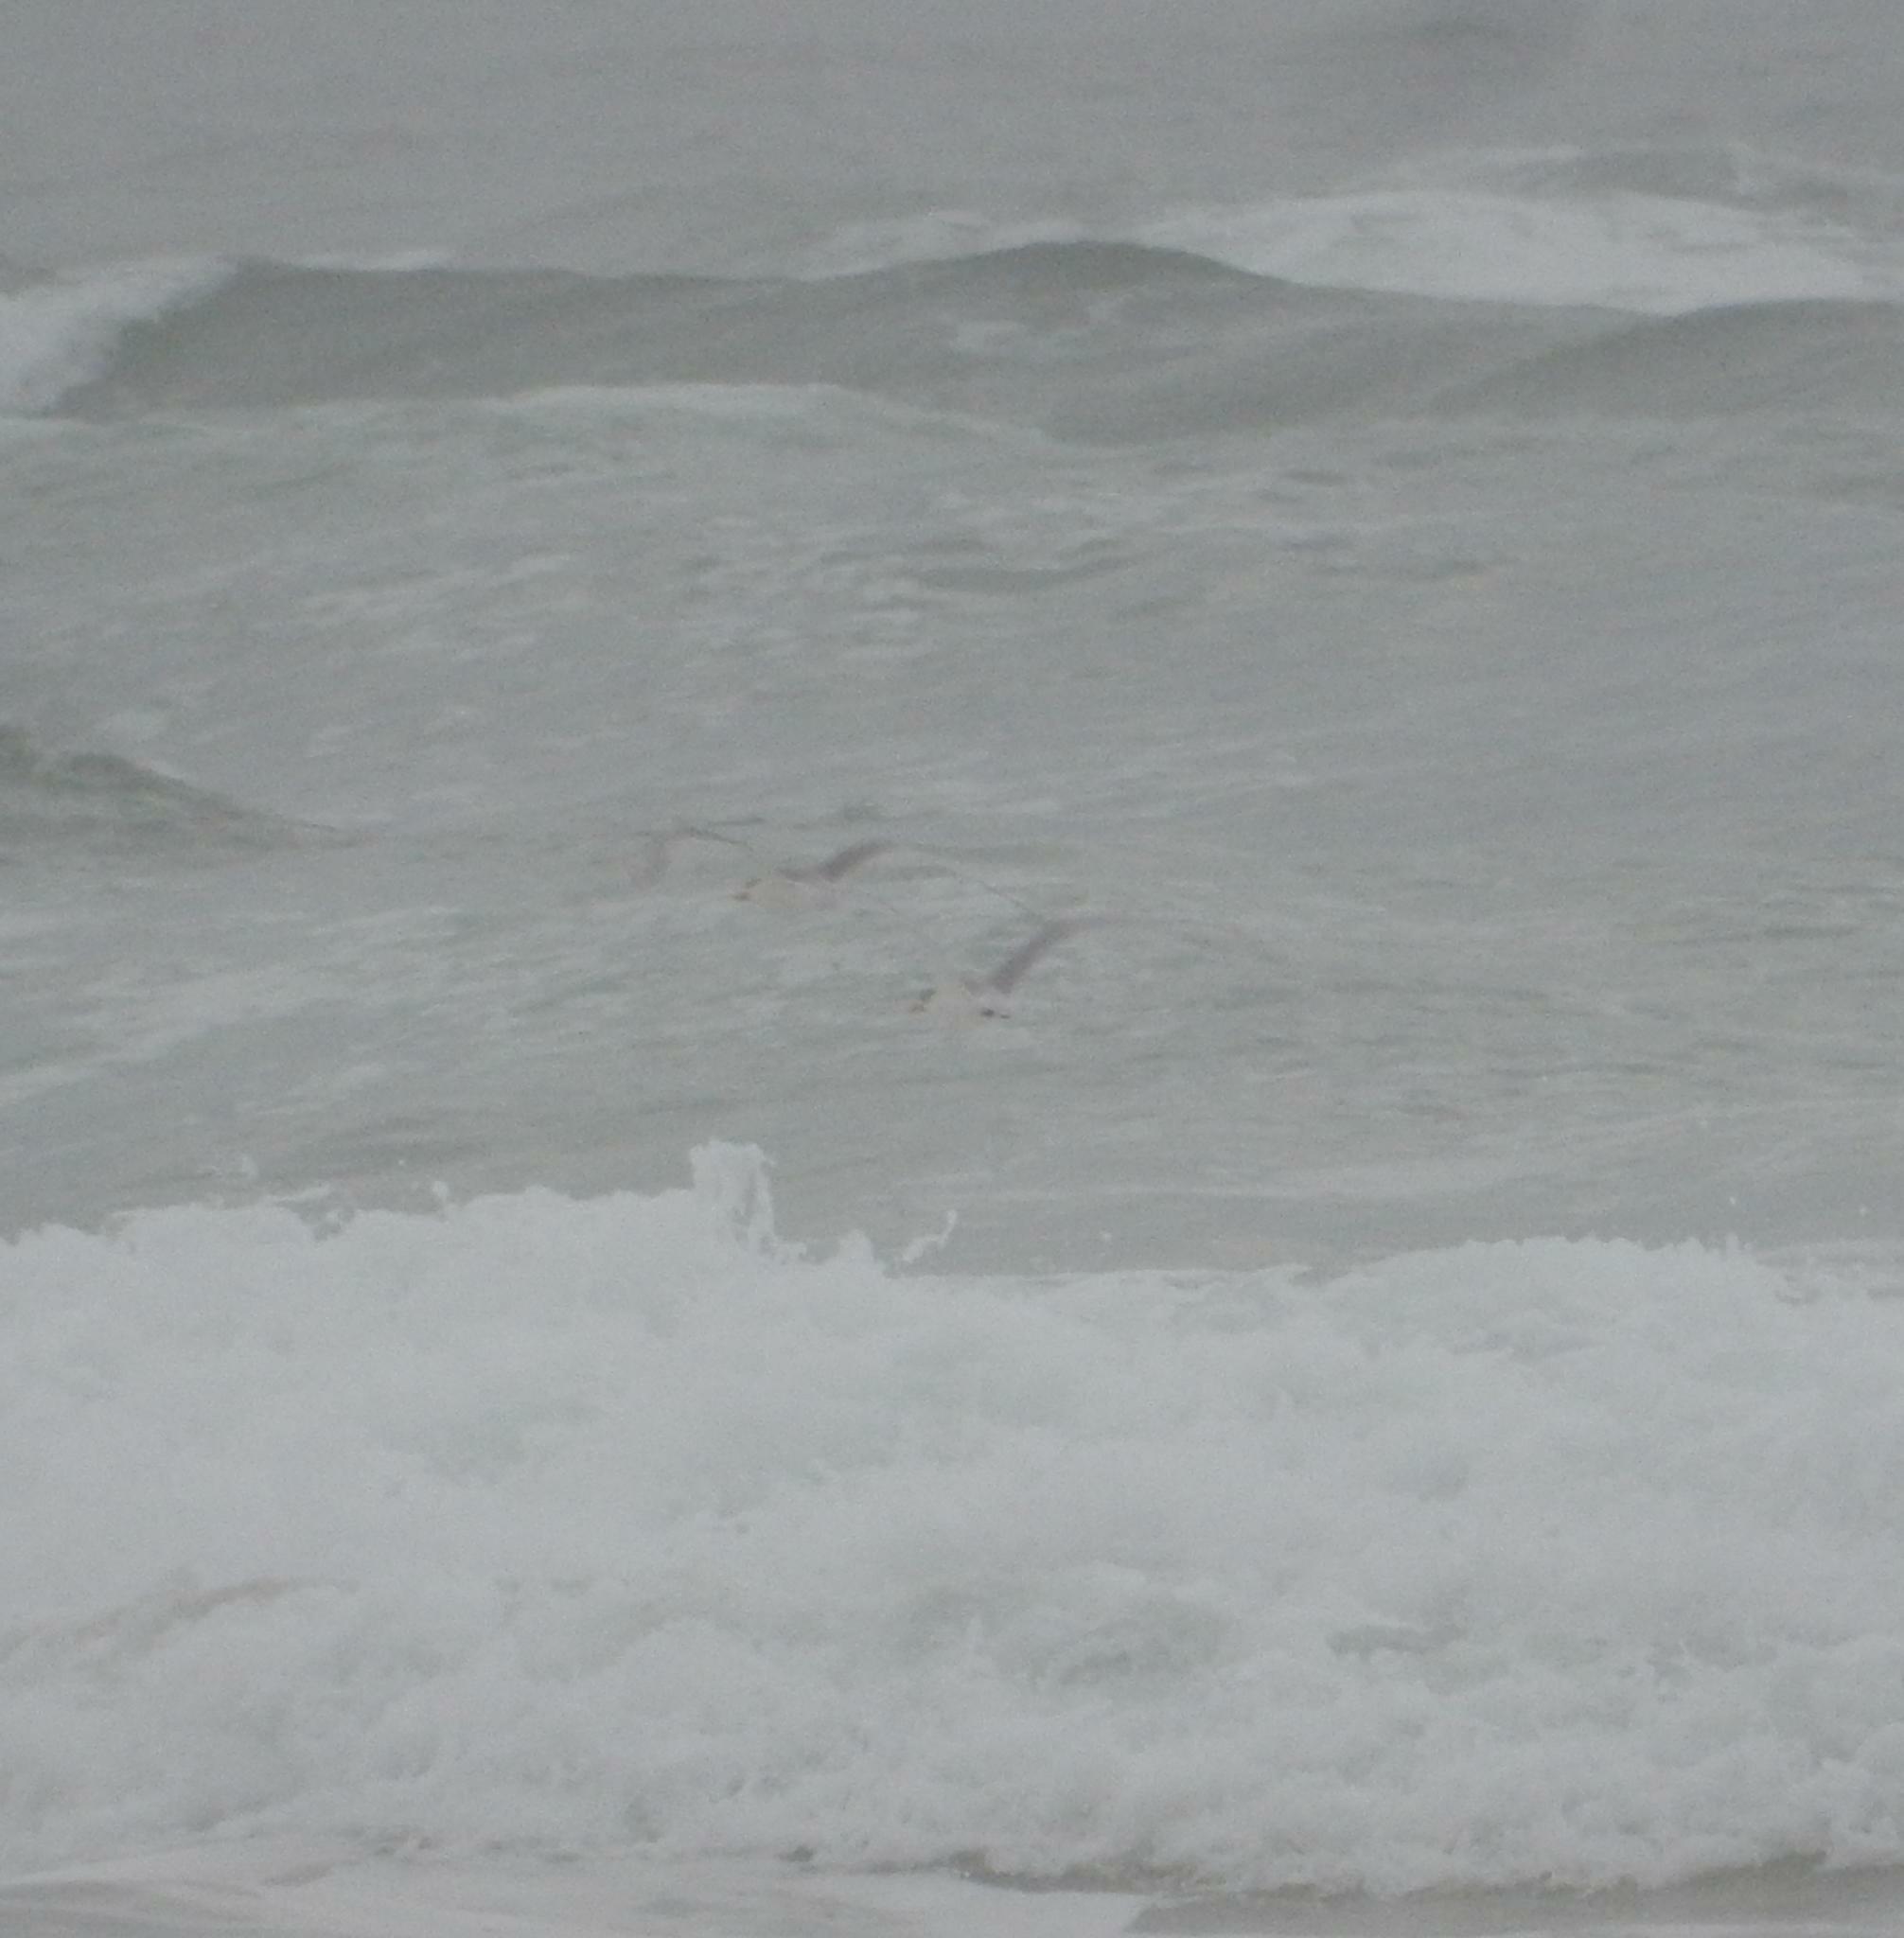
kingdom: Animalia
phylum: Chordata
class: Aves
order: Charadriiformes
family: Laridae
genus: Thalasseus
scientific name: Thalasseus bergii
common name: Greater crested tern
